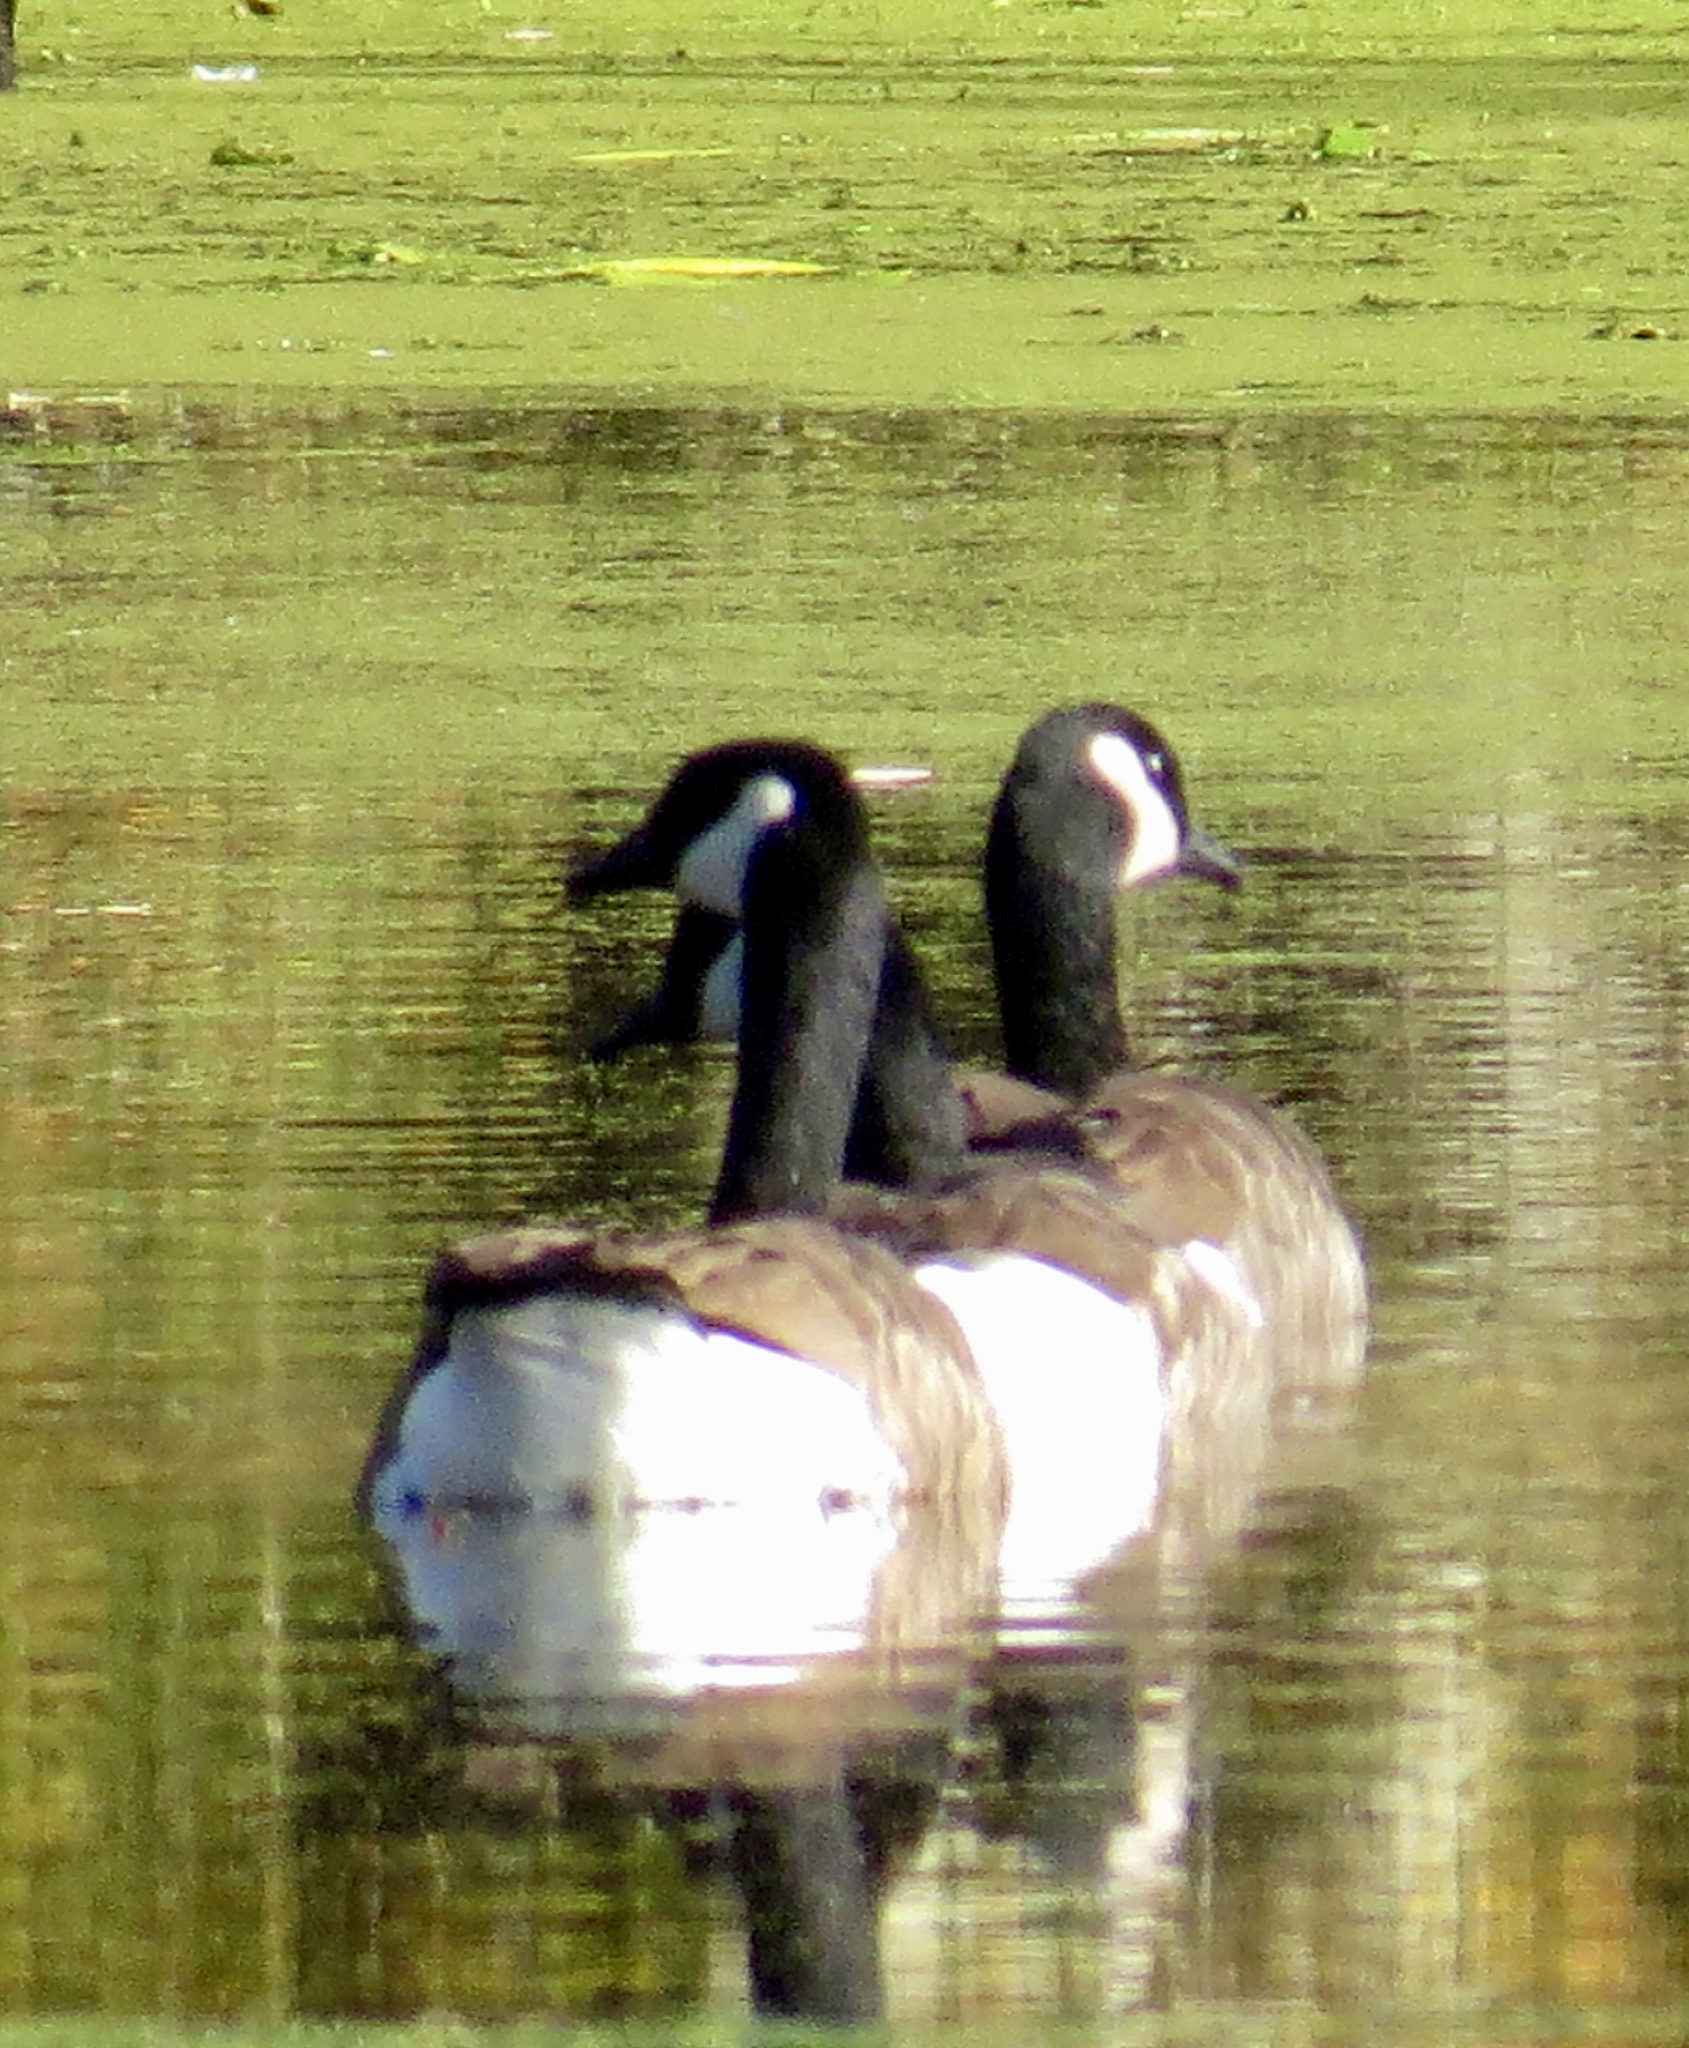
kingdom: Animalia
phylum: Chordata
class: Aves
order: Anseriformes
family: Anatidae
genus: Branta
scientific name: Branta canadensis
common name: Canada goose
